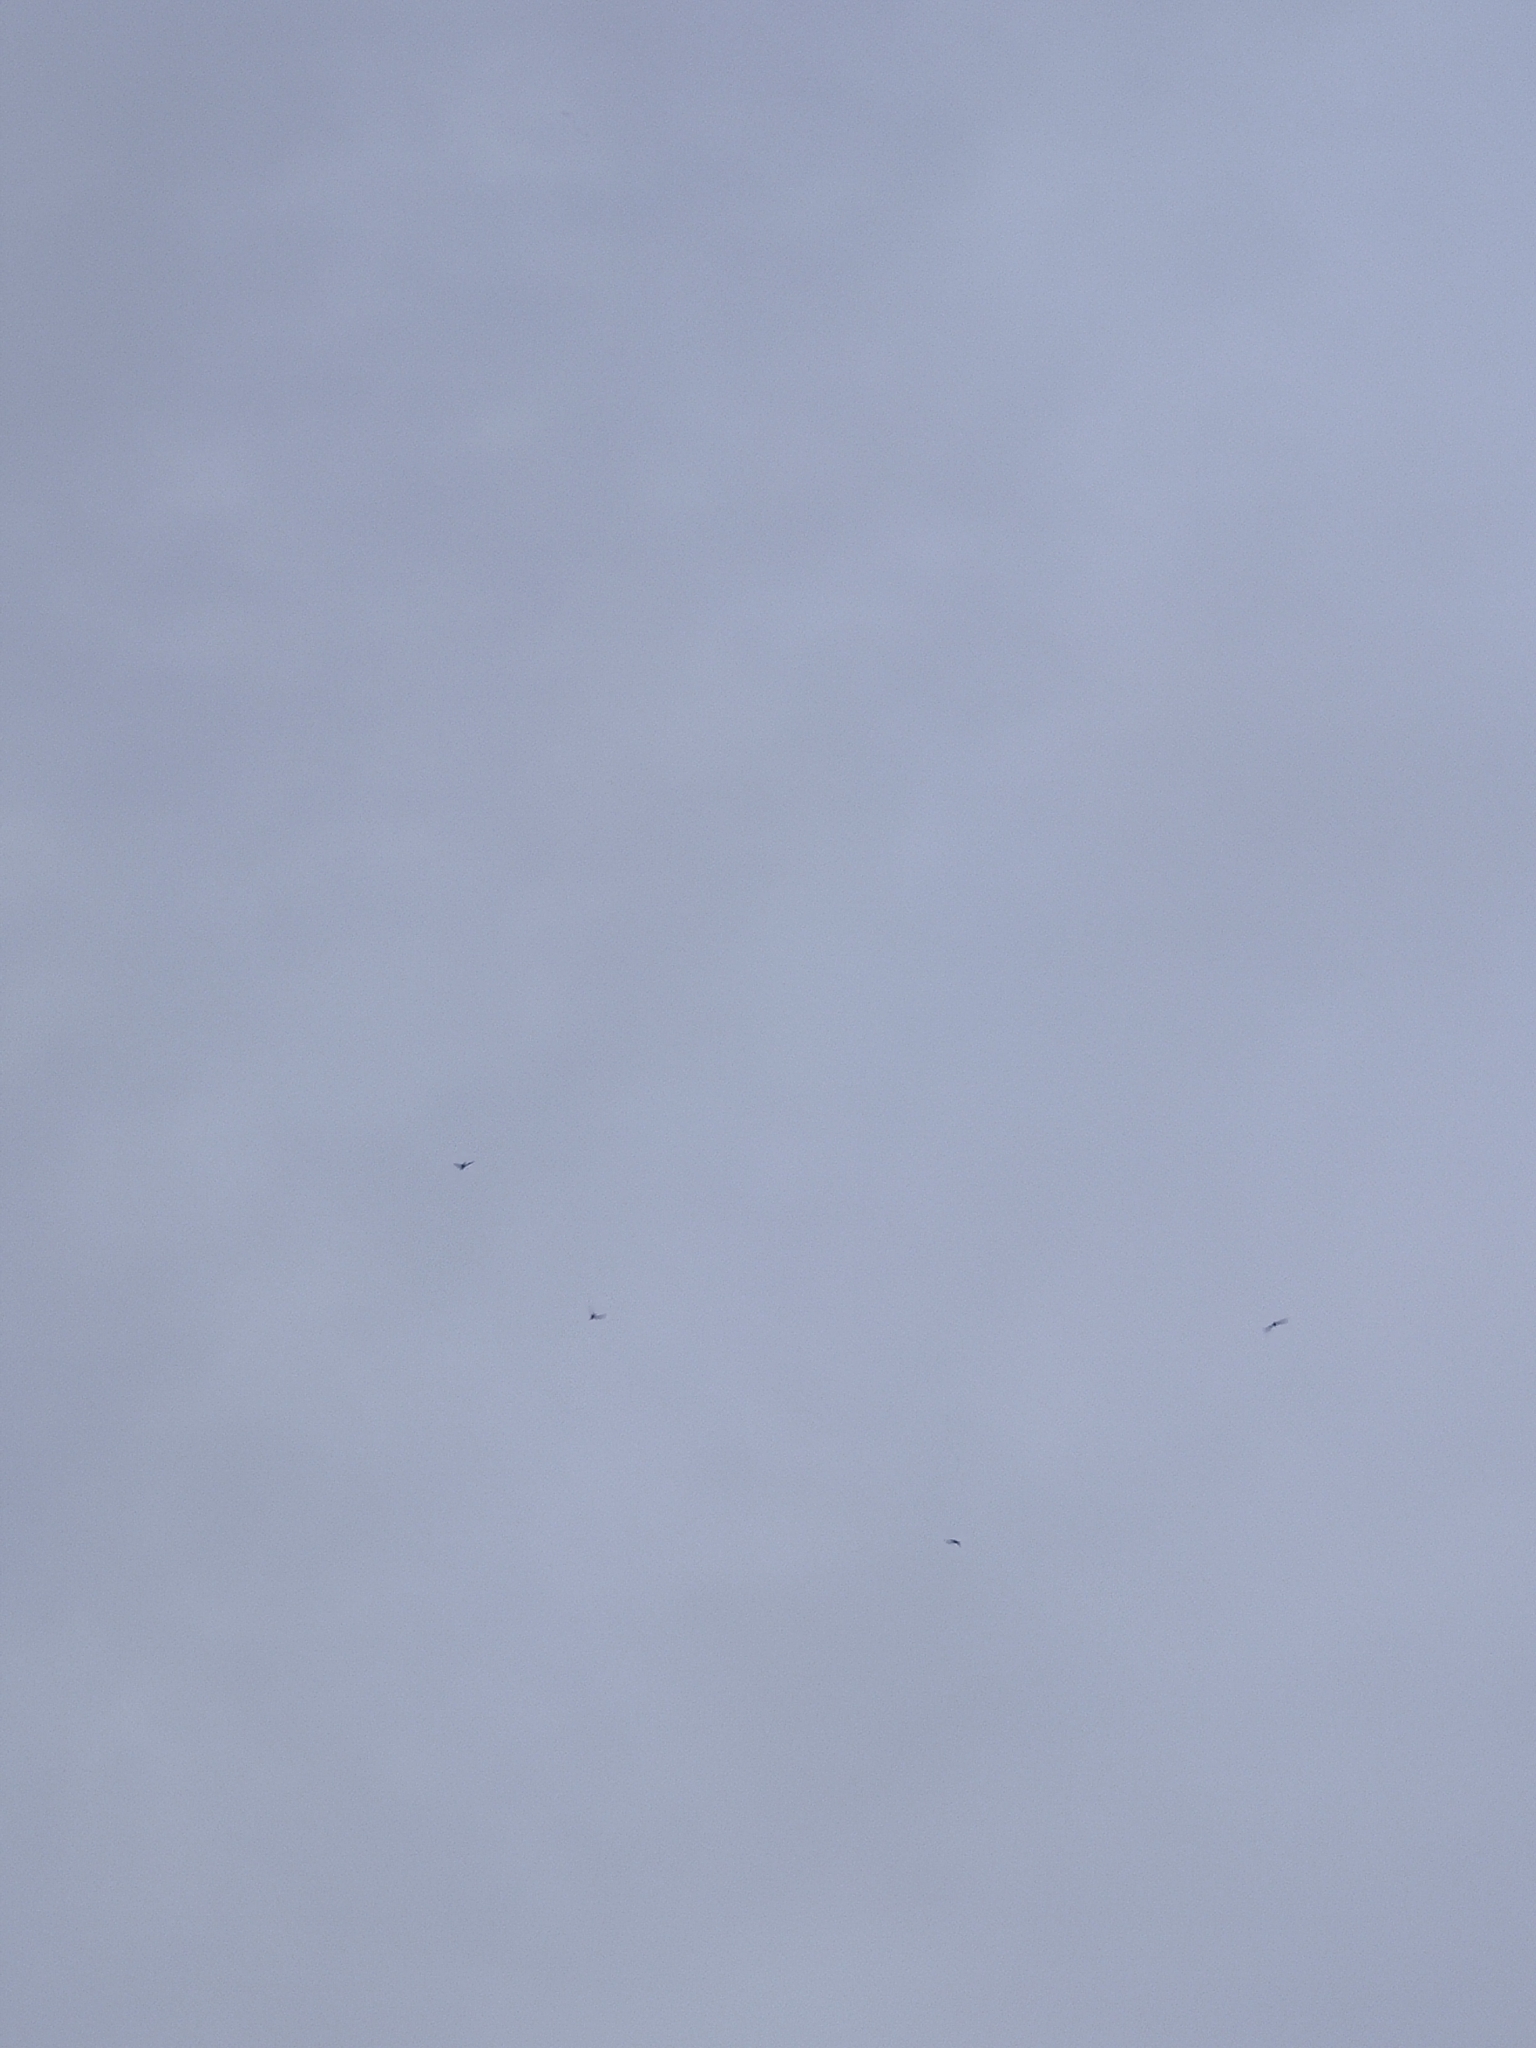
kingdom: Animalia
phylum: Chordata
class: Aves
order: Apodiformes
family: Apodidae
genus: Apus
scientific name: Apus apus
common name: Common swift
